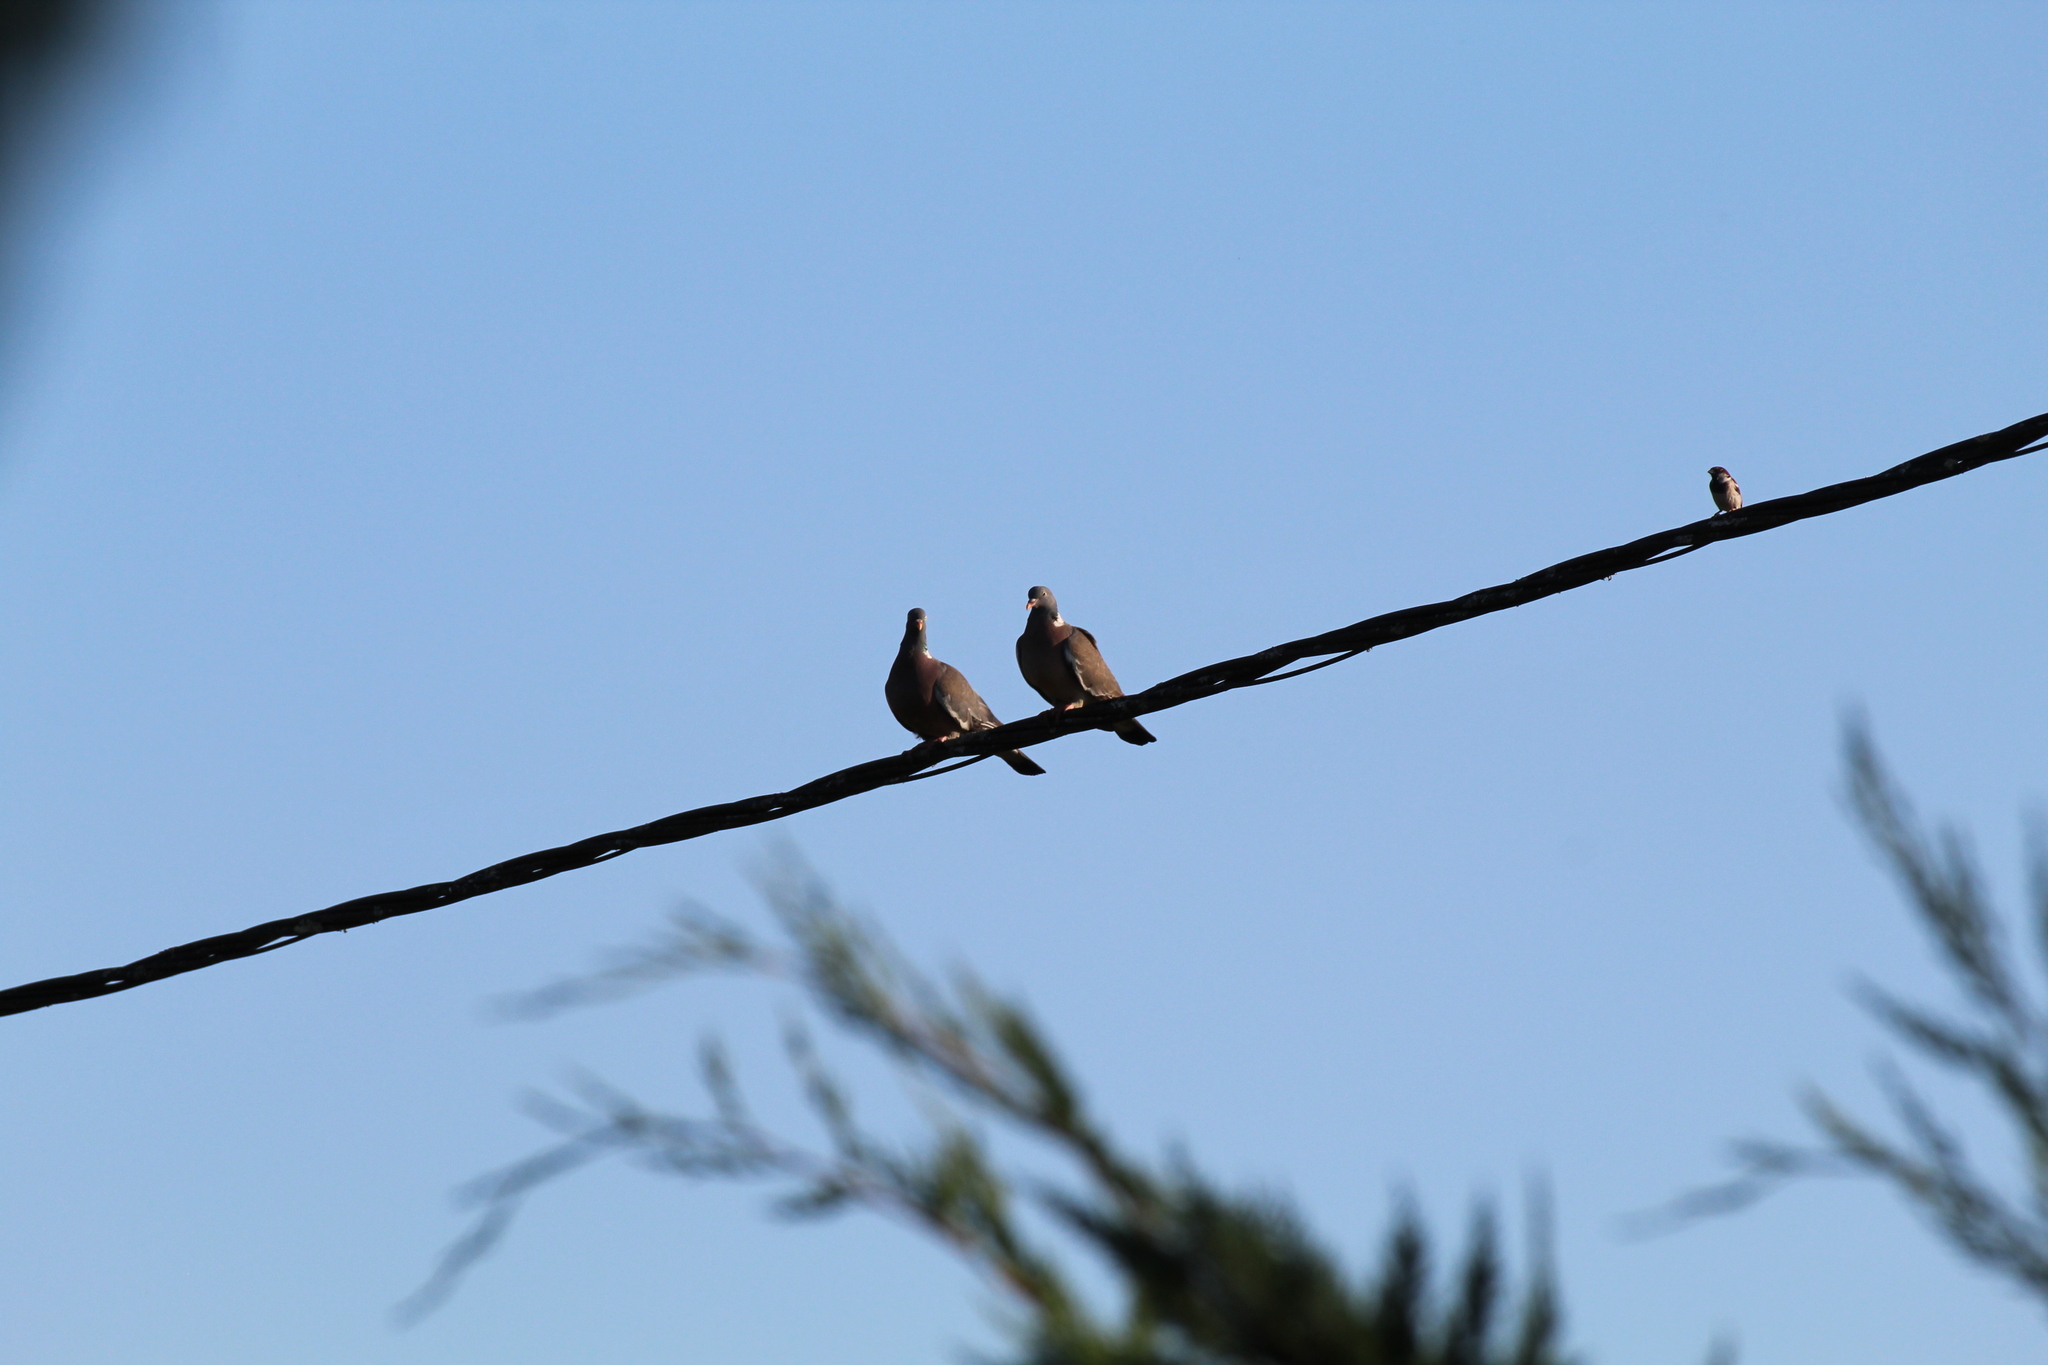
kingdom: Animalia
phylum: Chordata
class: Aves
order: Columbiformes
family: Columbidae
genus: Columba
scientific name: Columba palumbus
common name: Common wood pigeon
